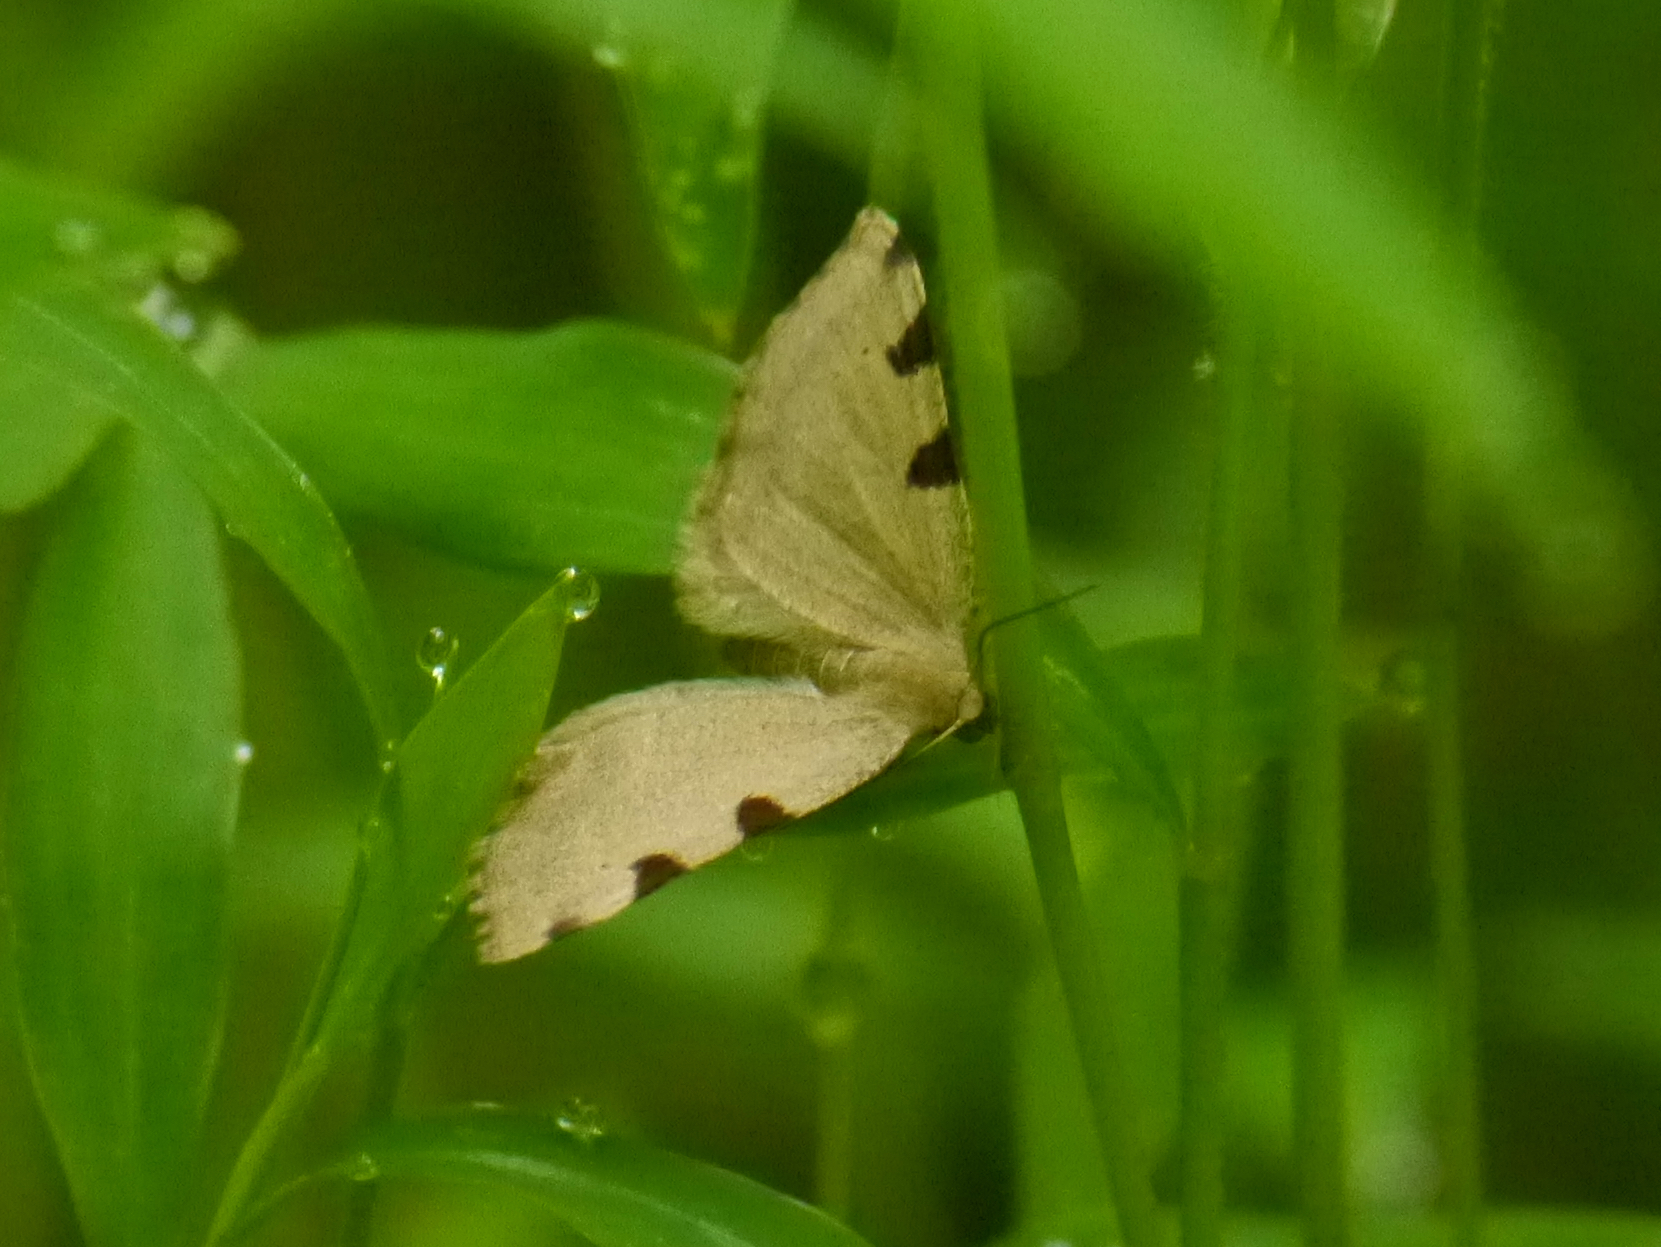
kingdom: Animalia
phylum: Arthropoda
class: Insecta
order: Lepidoptera
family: Geometridae
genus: Heterophleps
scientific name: Heterophleps triguttaria
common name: Three-spotted fillip
